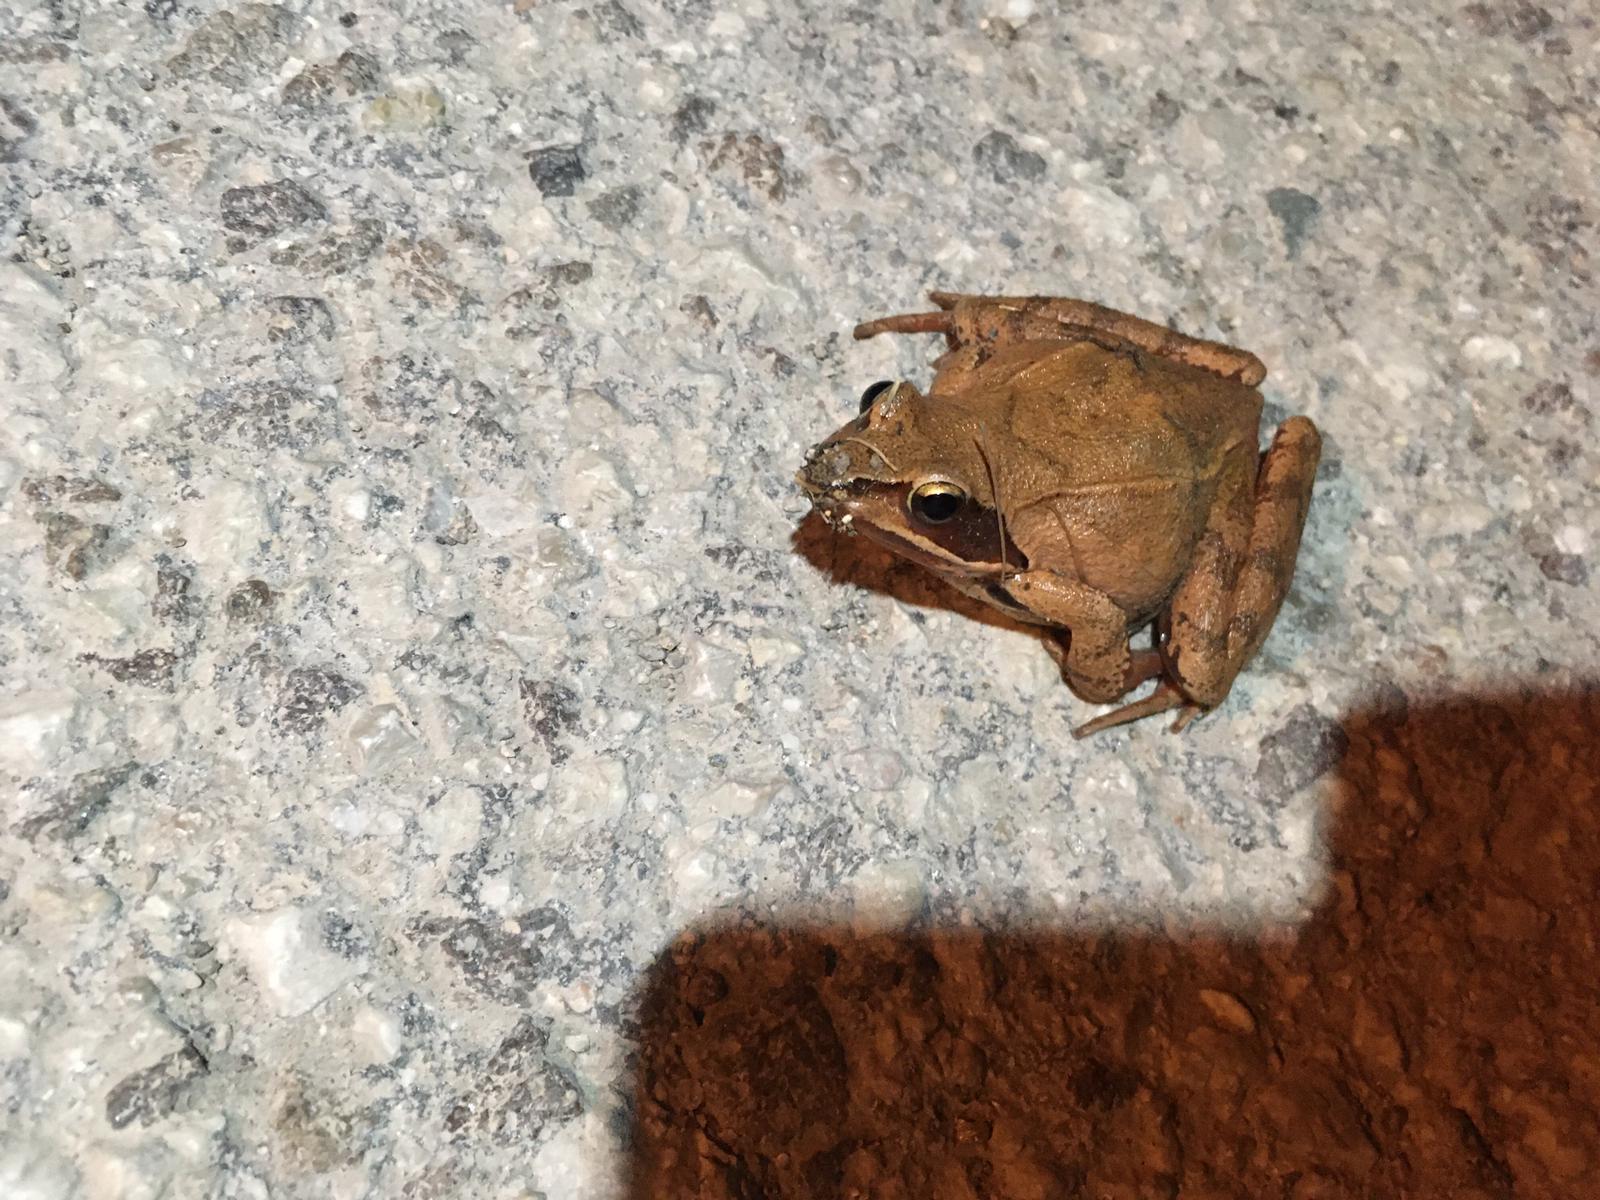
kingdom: Animalia
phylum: Chordata
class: Amphibia
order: Anura
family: Ranidae
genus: Rana
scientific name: Rana dalmatina
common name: Agile frog
